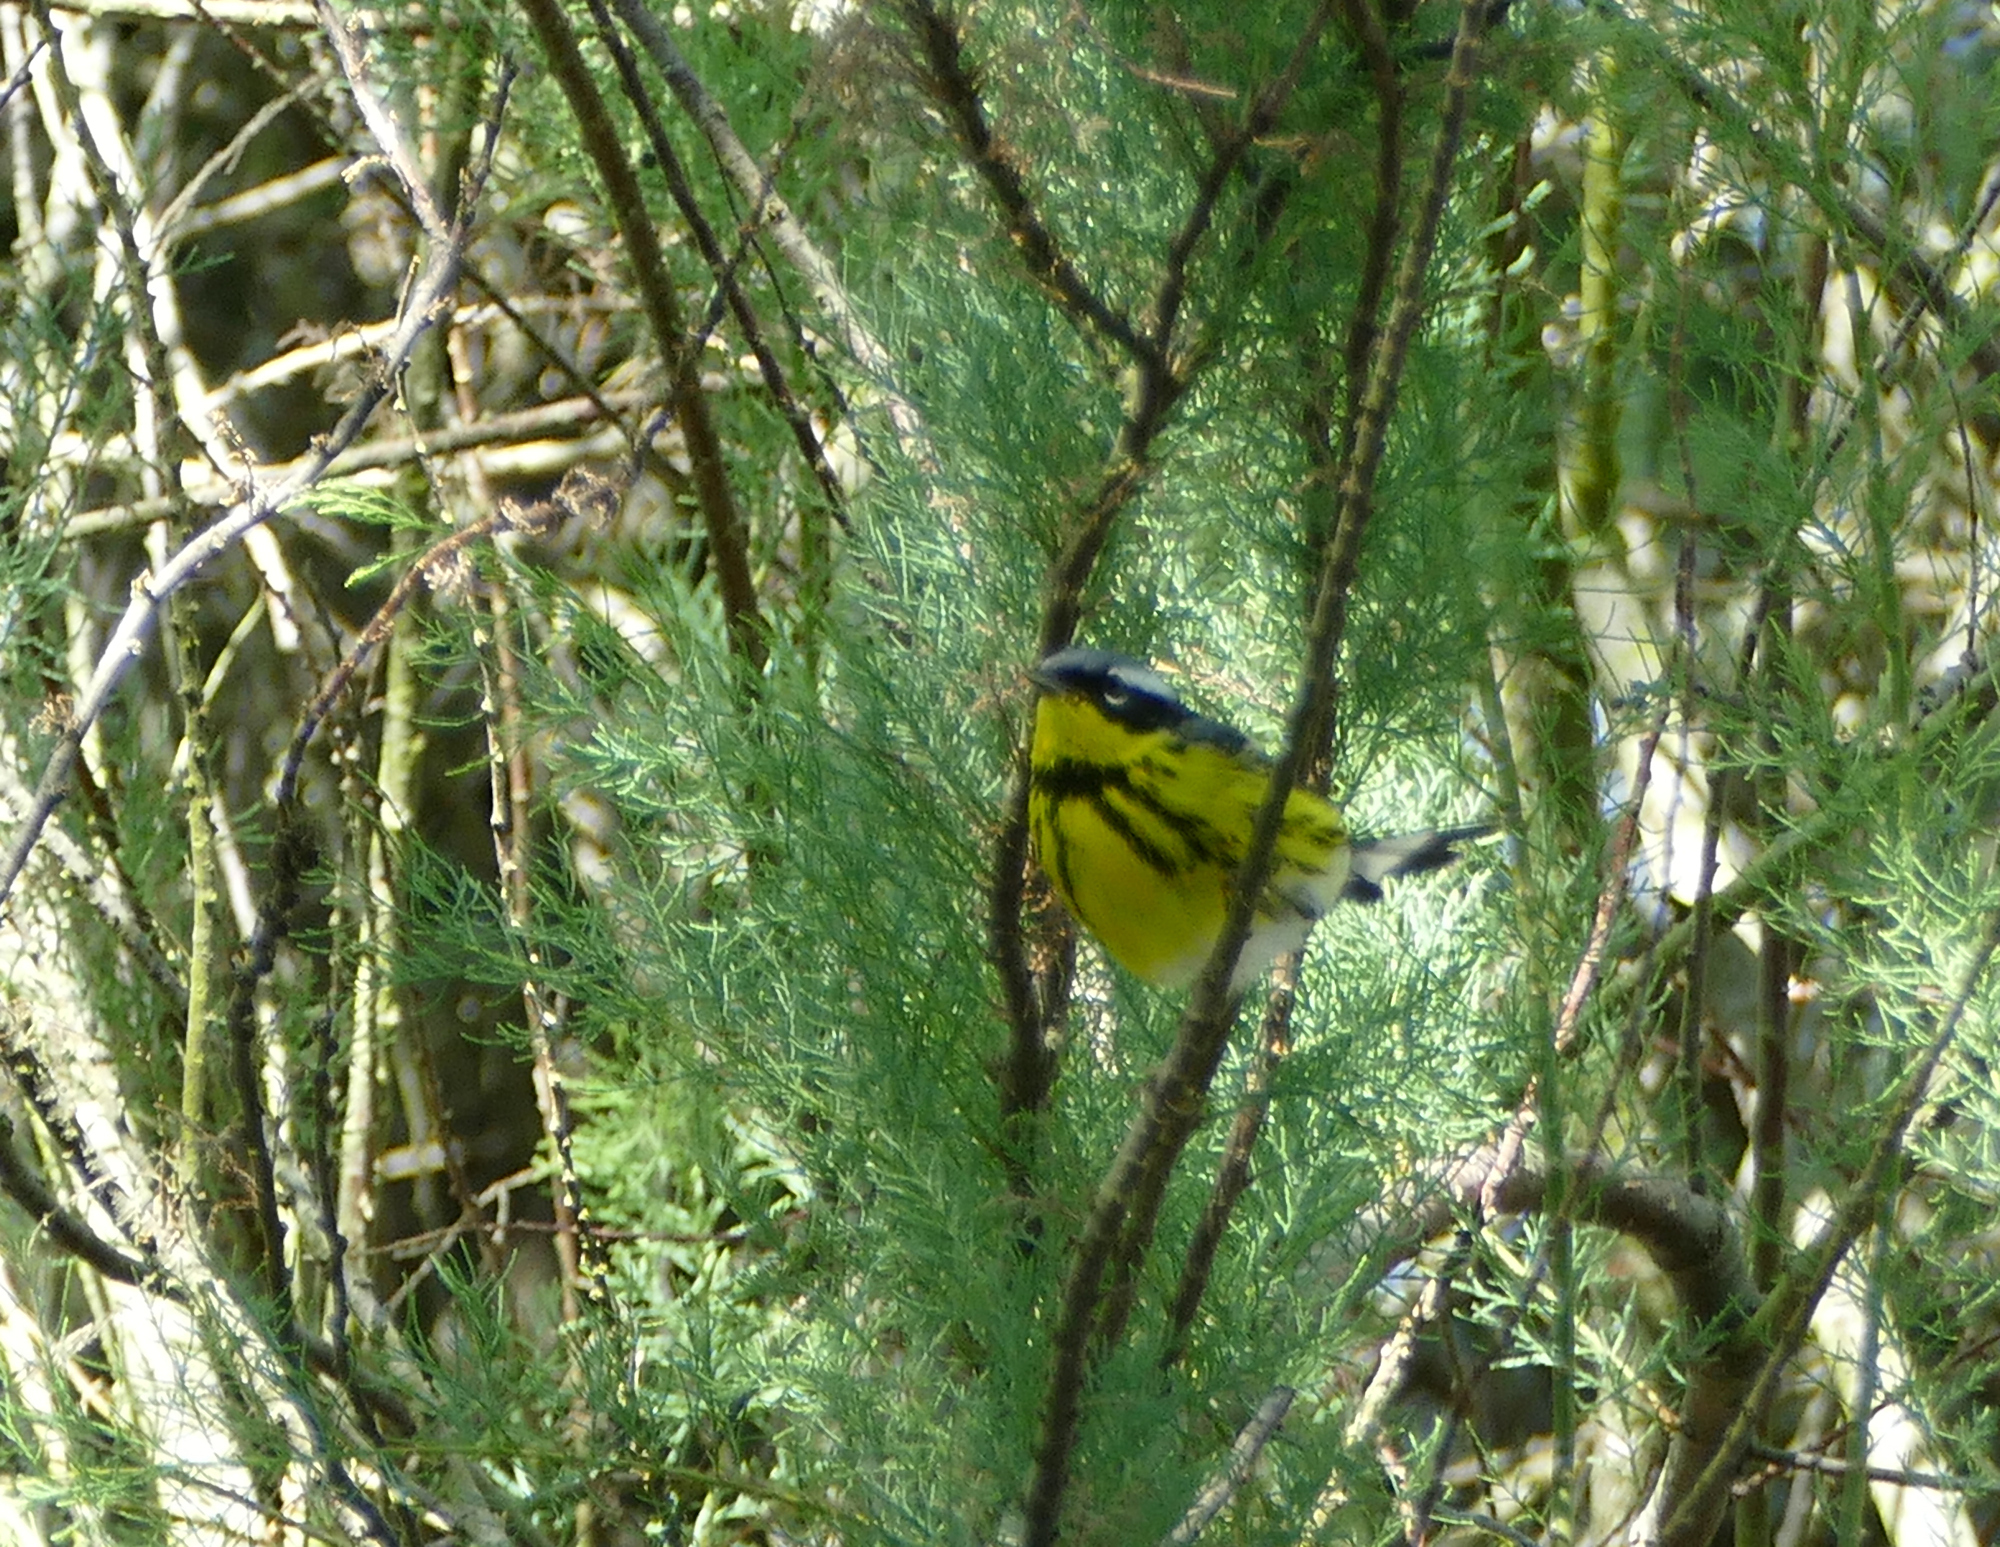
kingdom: Animalia
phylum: Chordata
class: Aves
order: Passeriformes
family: Parulidae
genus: Setophaga
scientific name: Setophaga magnolia
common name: Magnolia warbler
